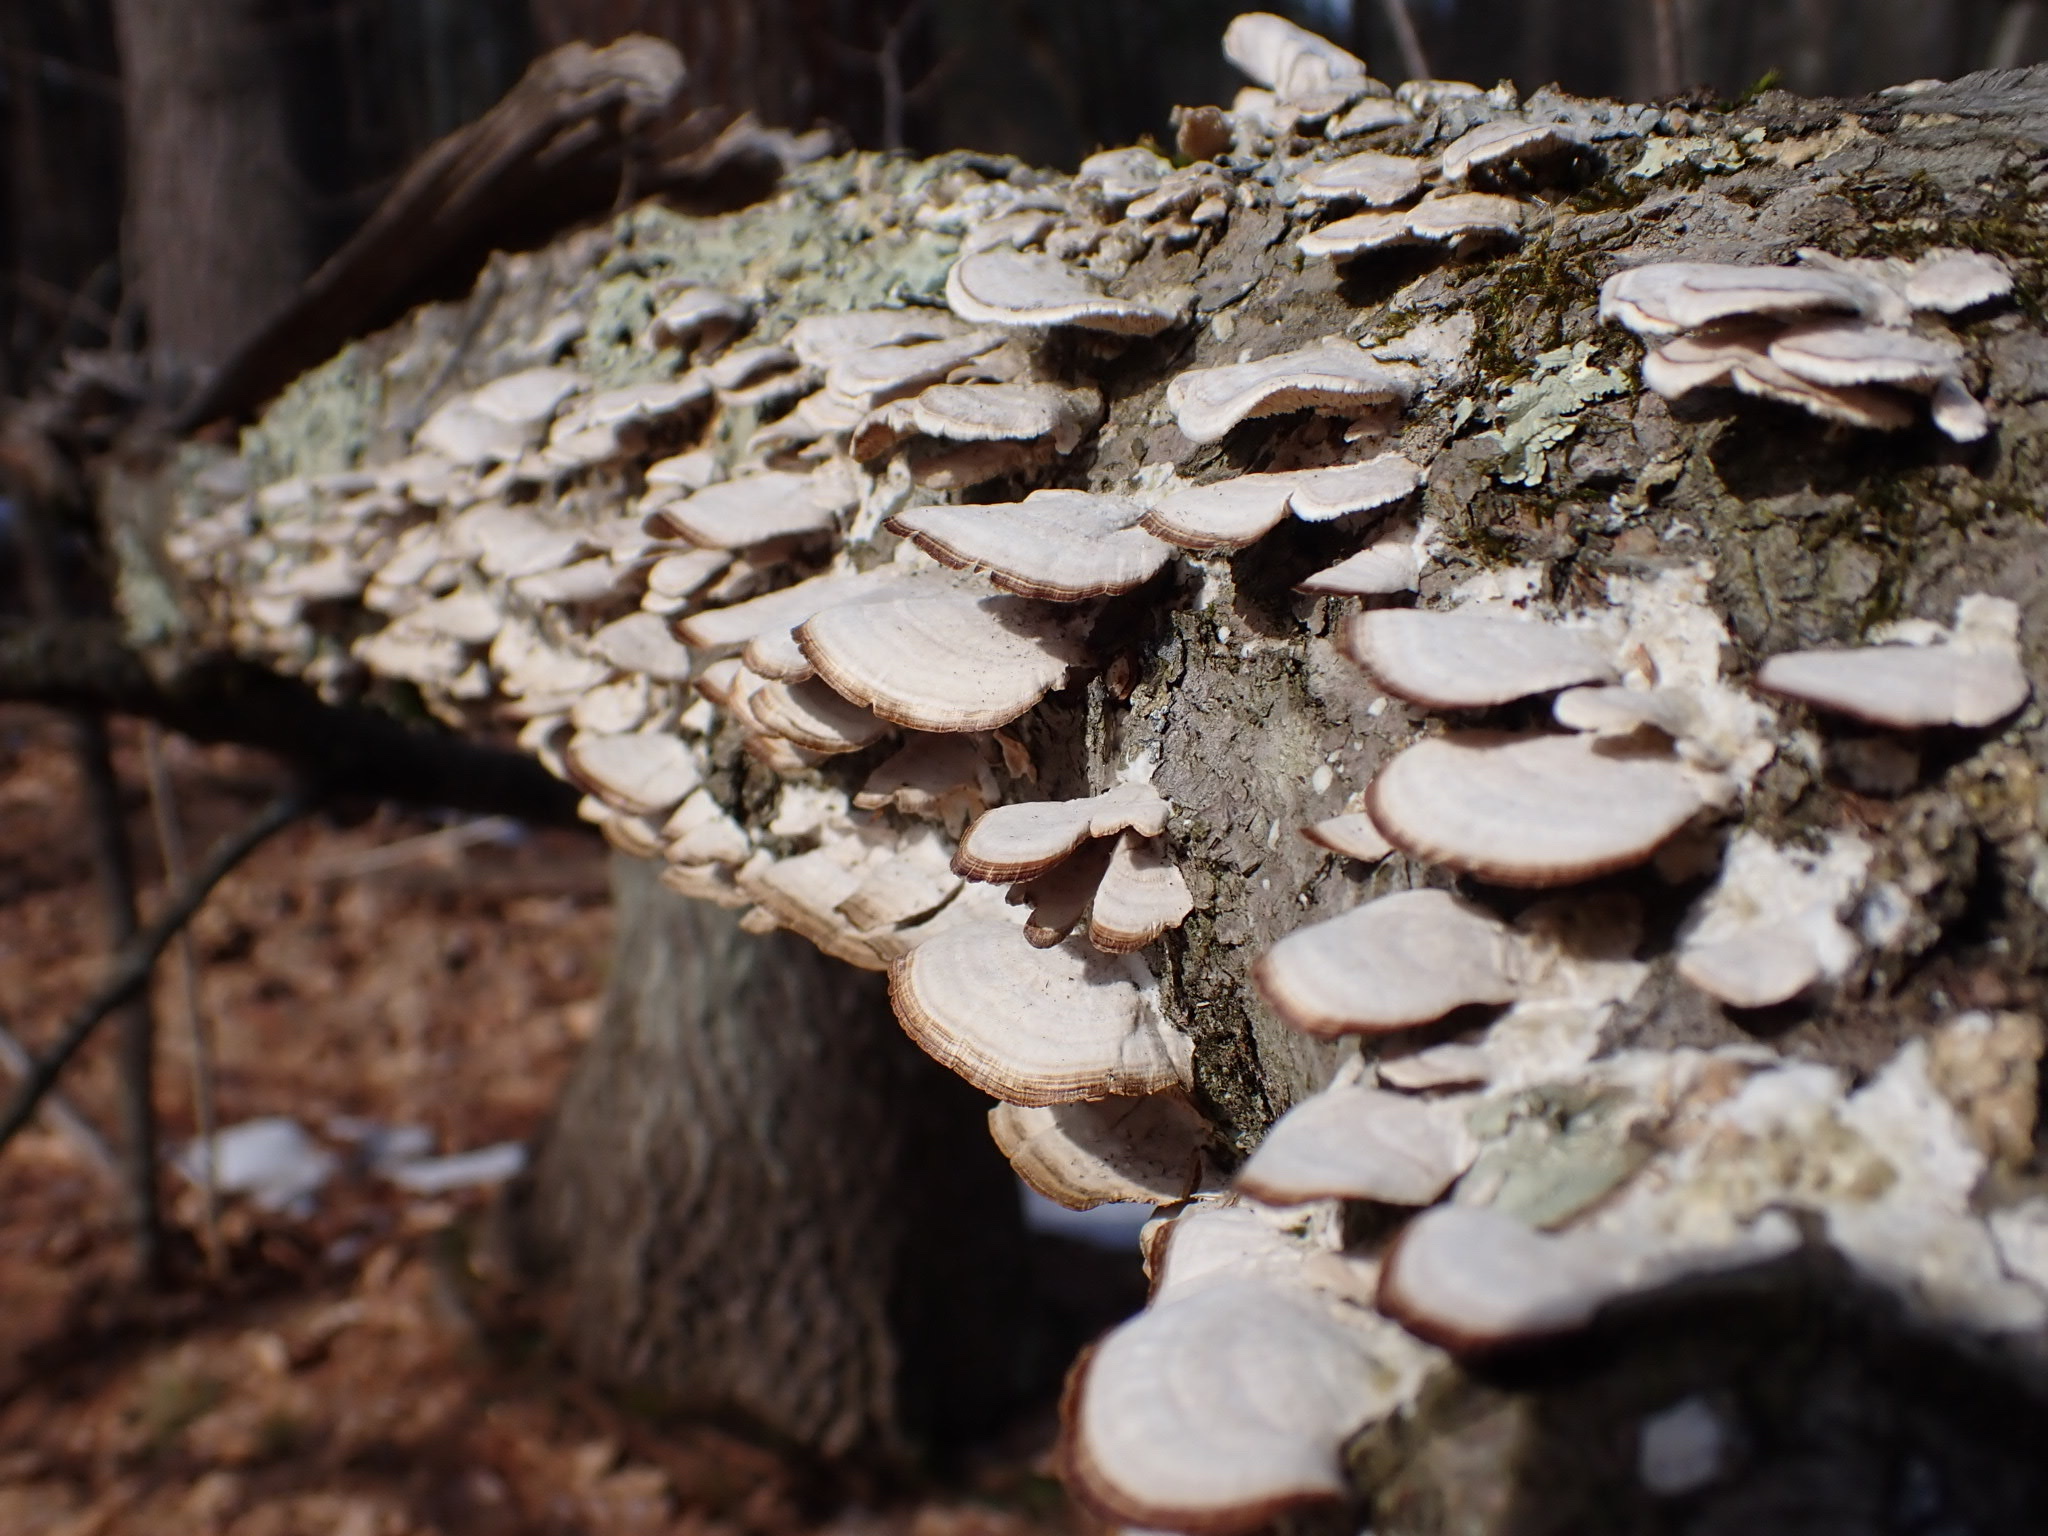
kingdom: Fungi
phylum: Basidiomycota
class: Agaricomycetes
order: Hymenochaetales
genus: Trichaptum
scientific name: Trichaptum biforme
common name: Violet-toothed polypore
